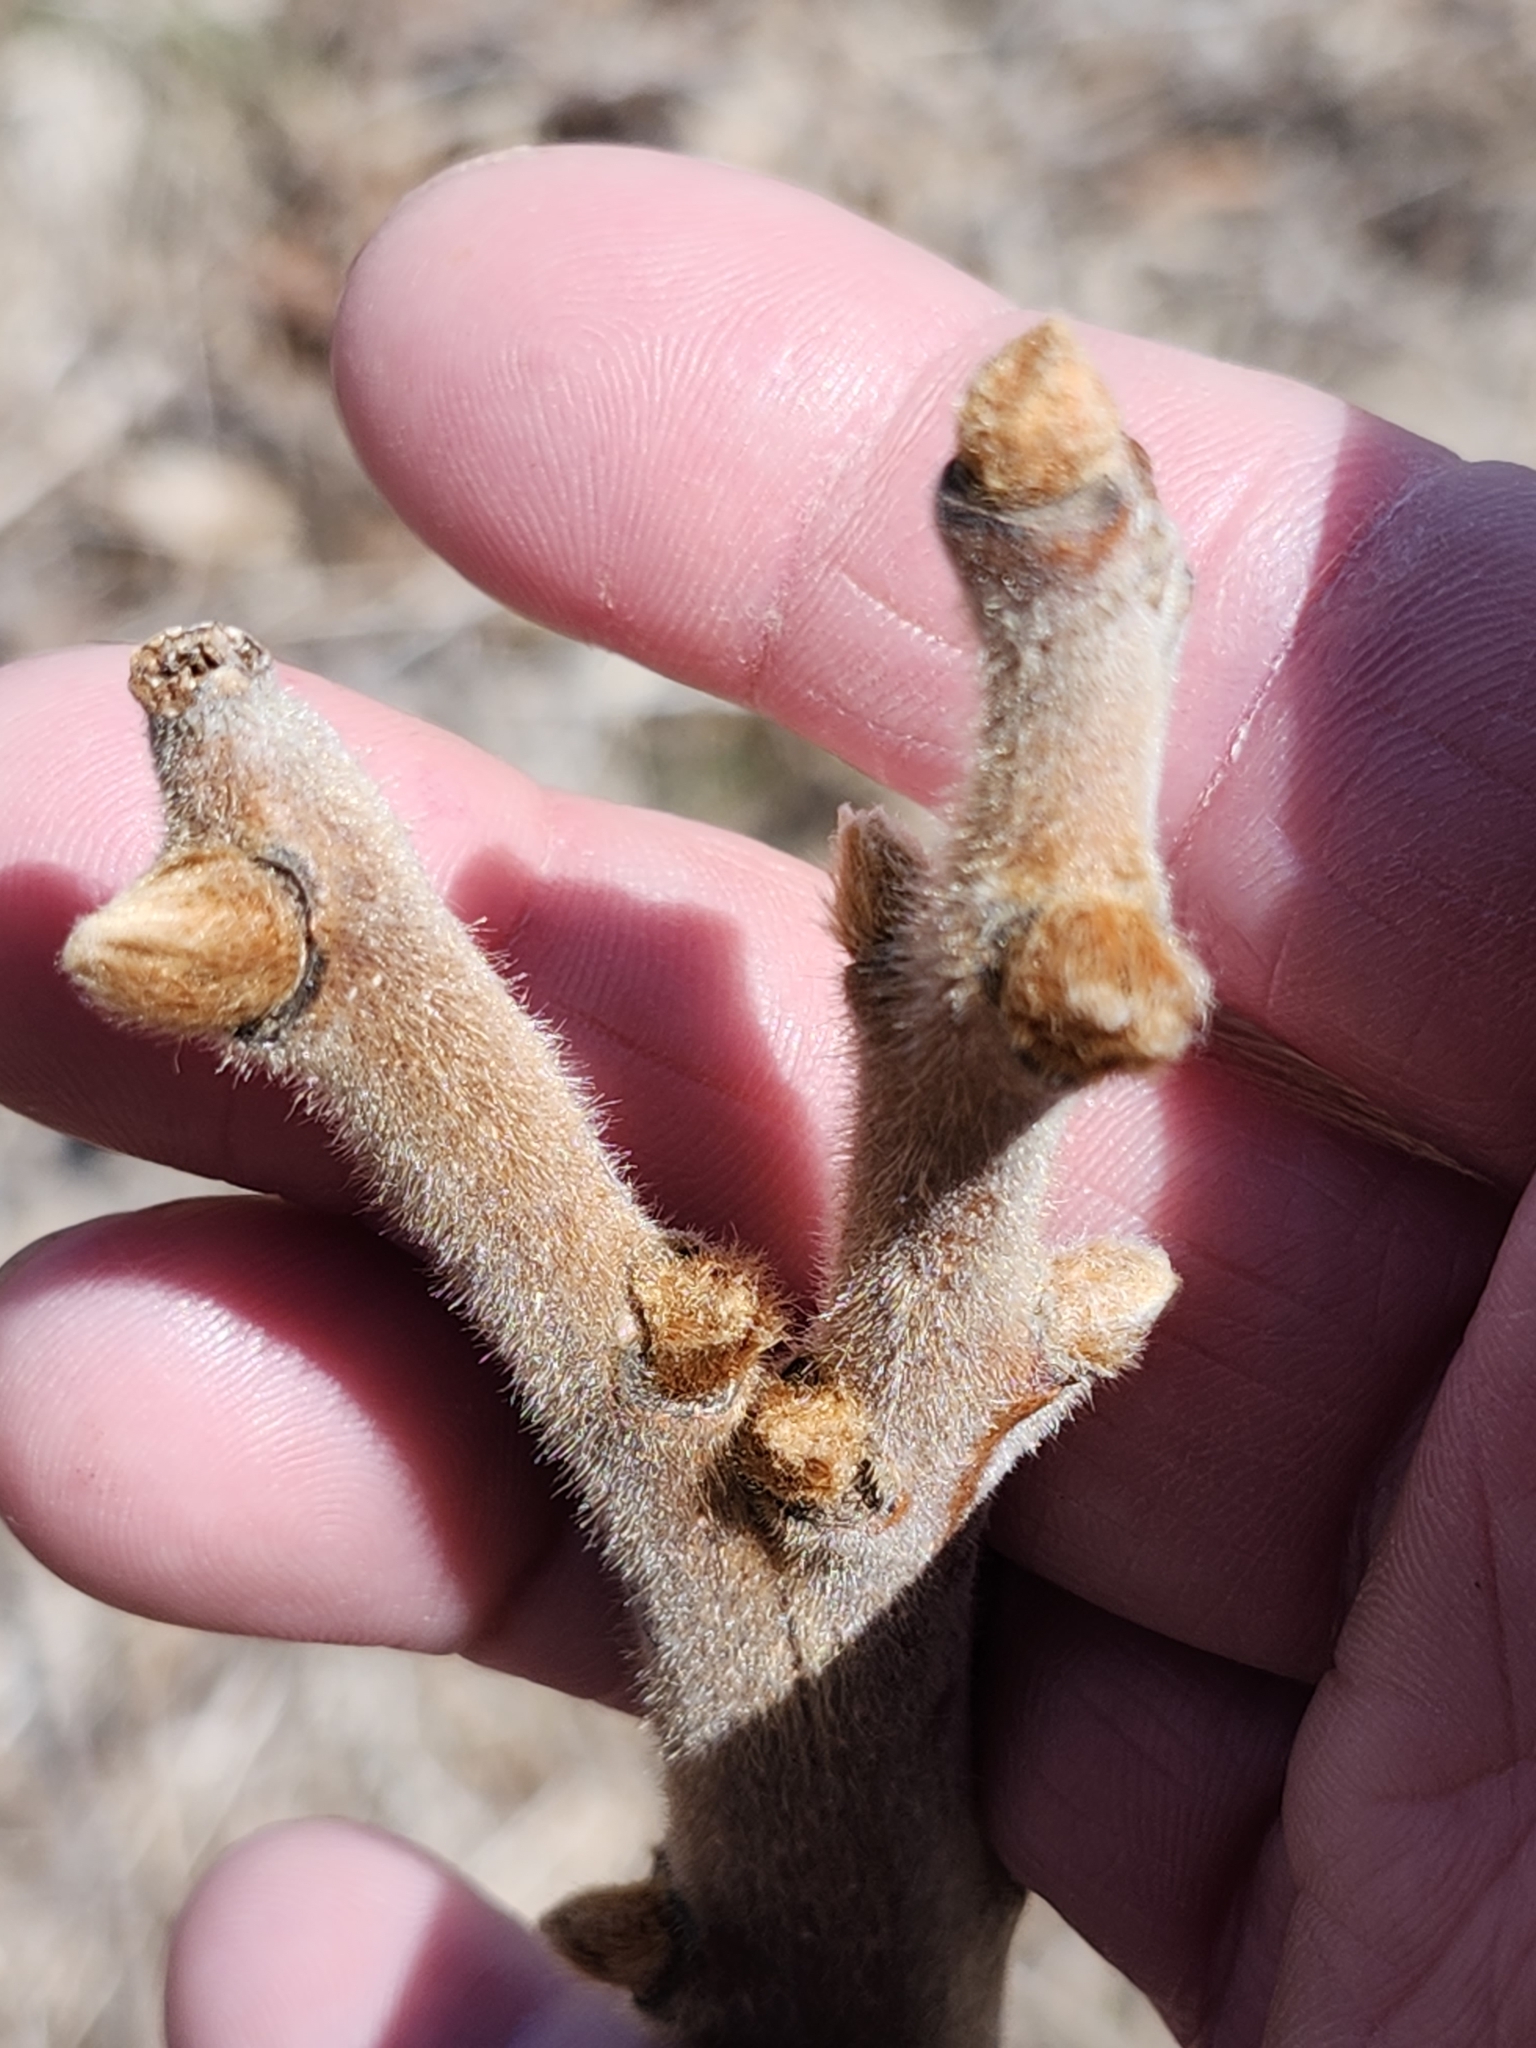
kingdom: Plantae
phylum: Tracheophyta
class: Magnoliopsida
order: Sapindales
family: Anacardiaceae
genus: Rhus
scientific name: Rhus typhina
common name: Staghorn sumac
